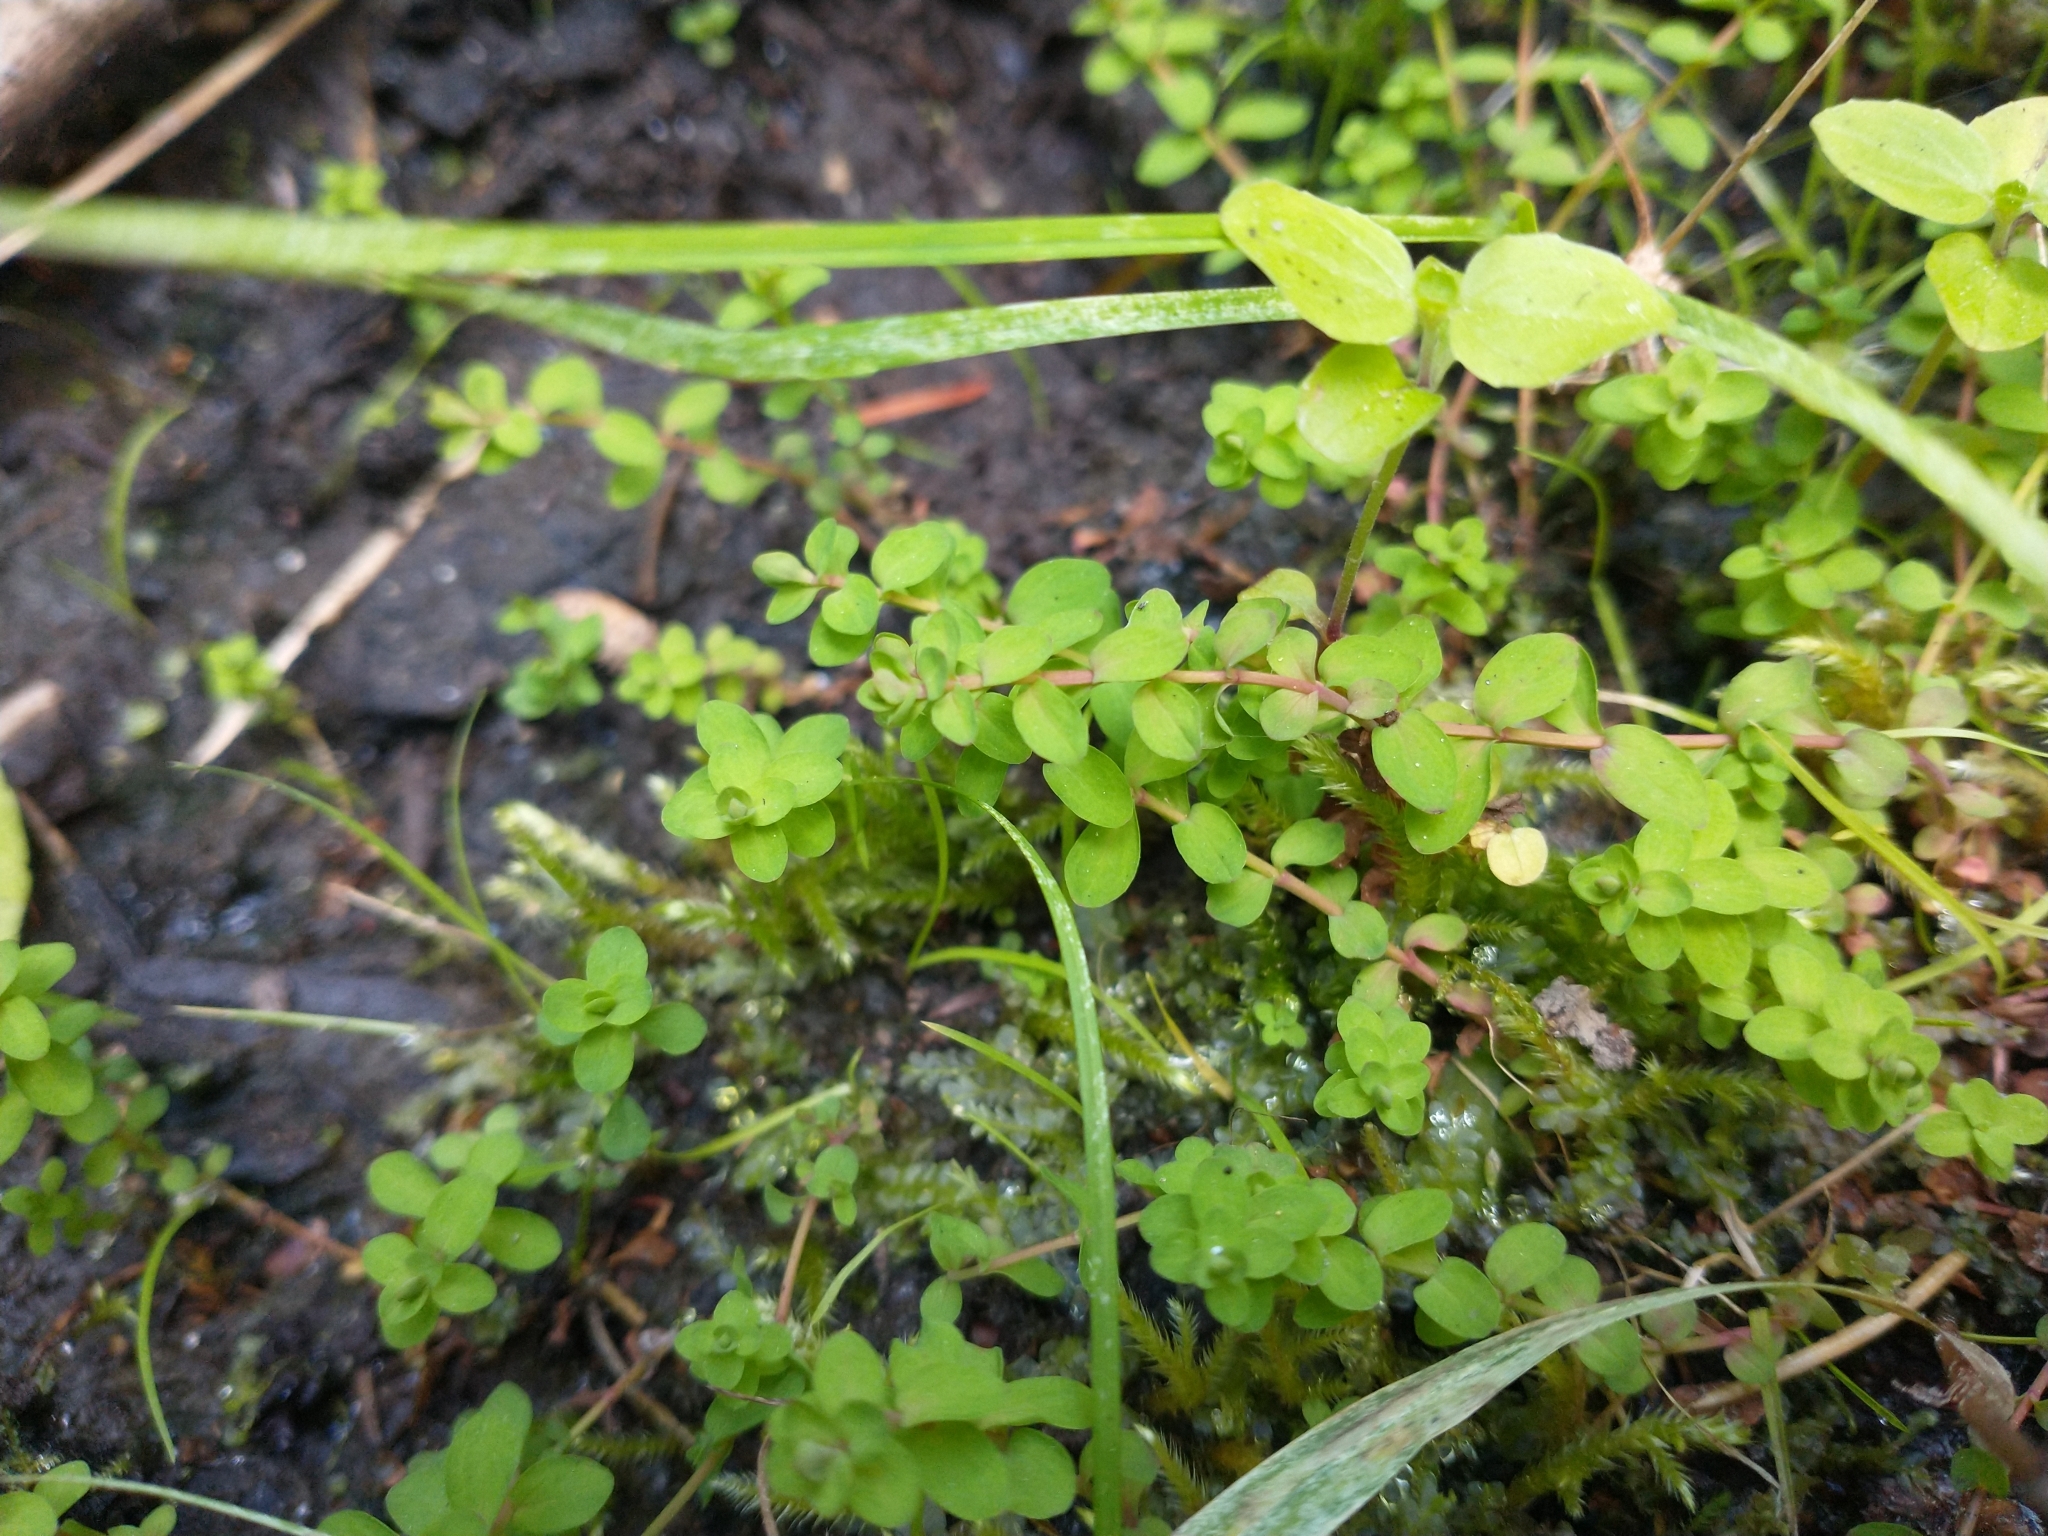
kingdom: Plantae
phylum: Tracheophyta
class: Magnoliopsida
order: Malpighiales
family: Hypericaceae
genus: Hypericum
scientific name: Hypericum anagalloides
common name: Bog st. john's-wort
